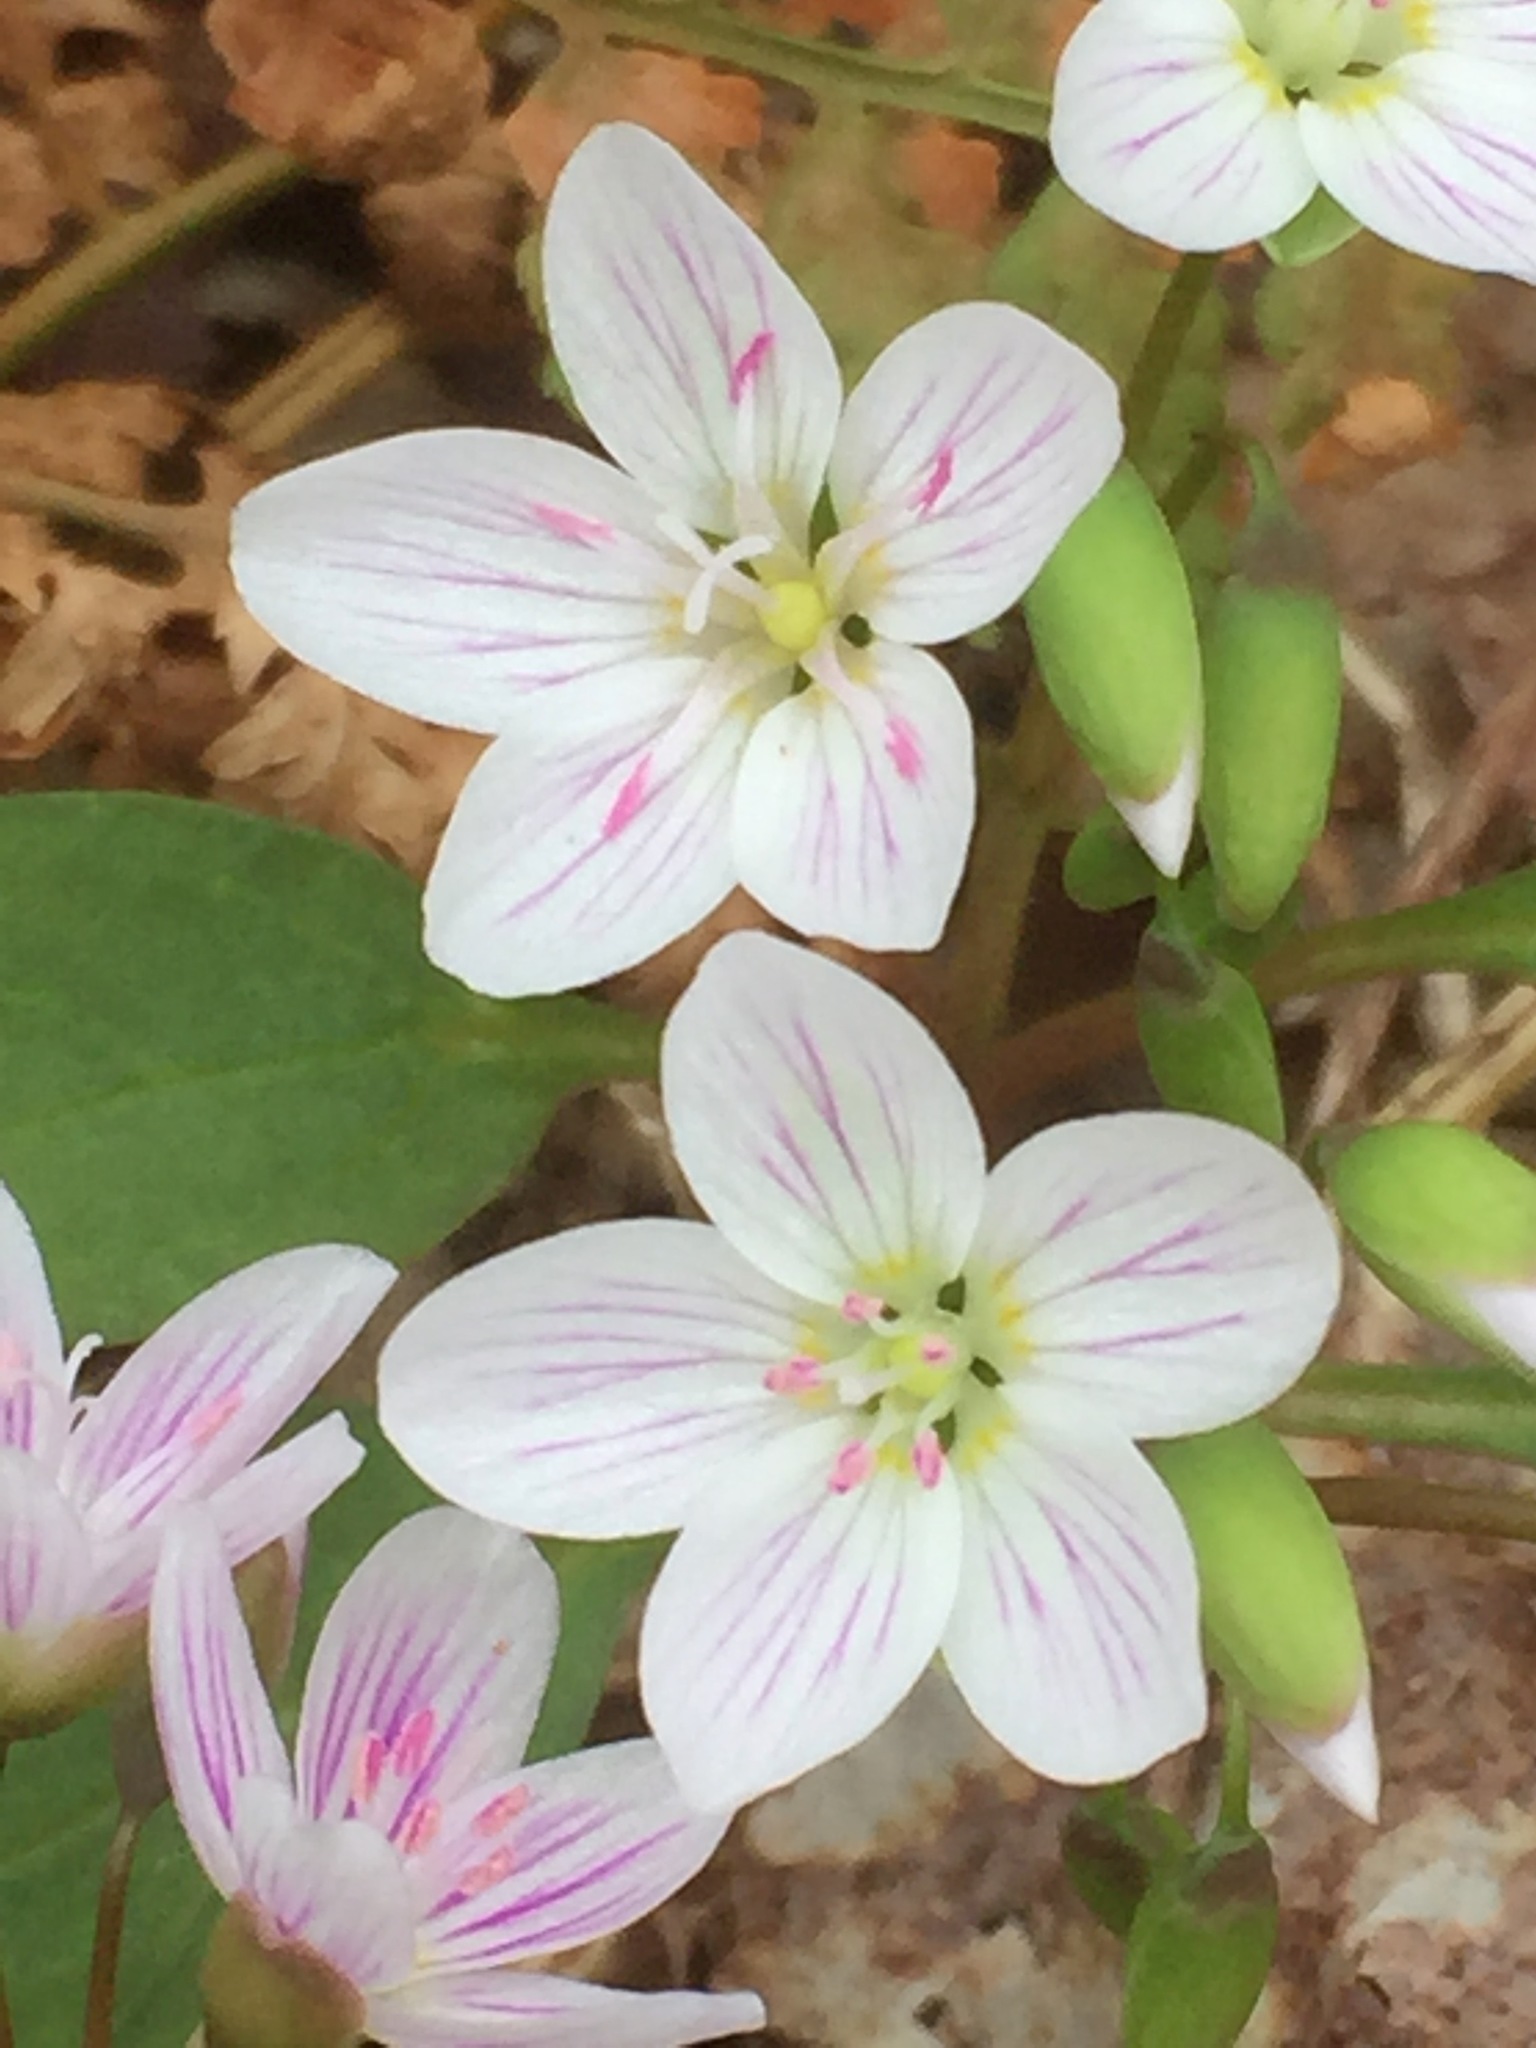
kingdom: Plantae
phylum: Tracheophyta
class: Magnoliopsida
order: Caryophyllales
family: Montiaceae
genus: Claytonia
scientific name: Claytonia caroliniana
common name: Carolina spring beauty
